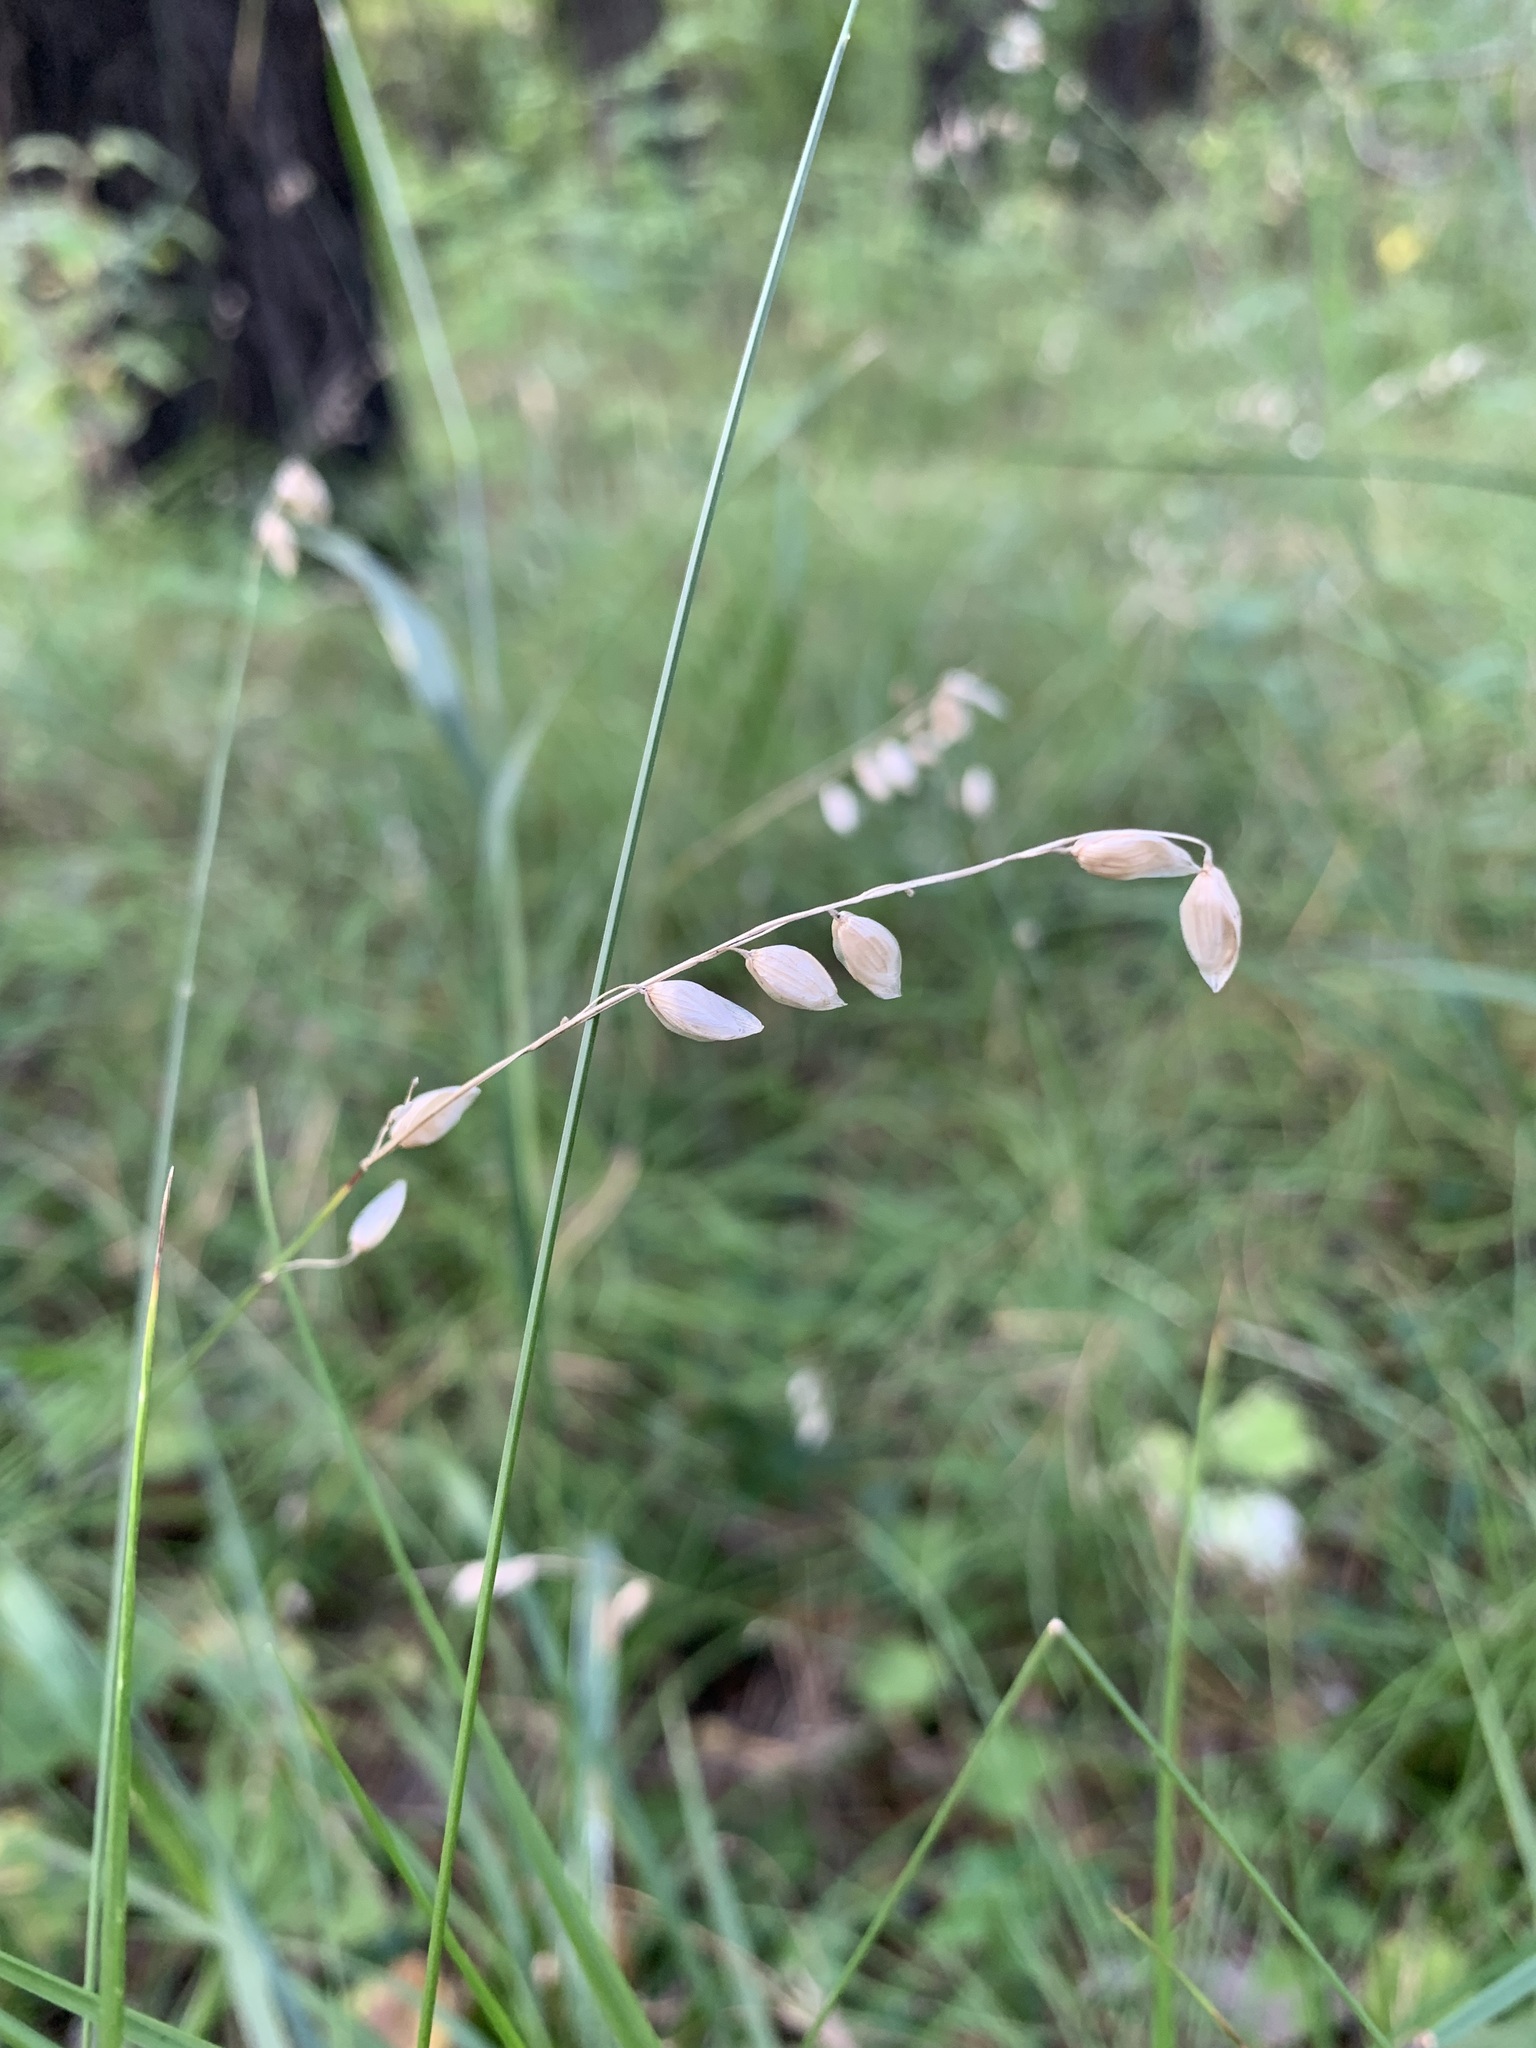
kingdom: Plantae
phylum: Tracheophyta
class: Liliopsida
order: Poales
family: Poaceae
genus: Melica
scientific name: Melica nutans
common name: Mountain melick
